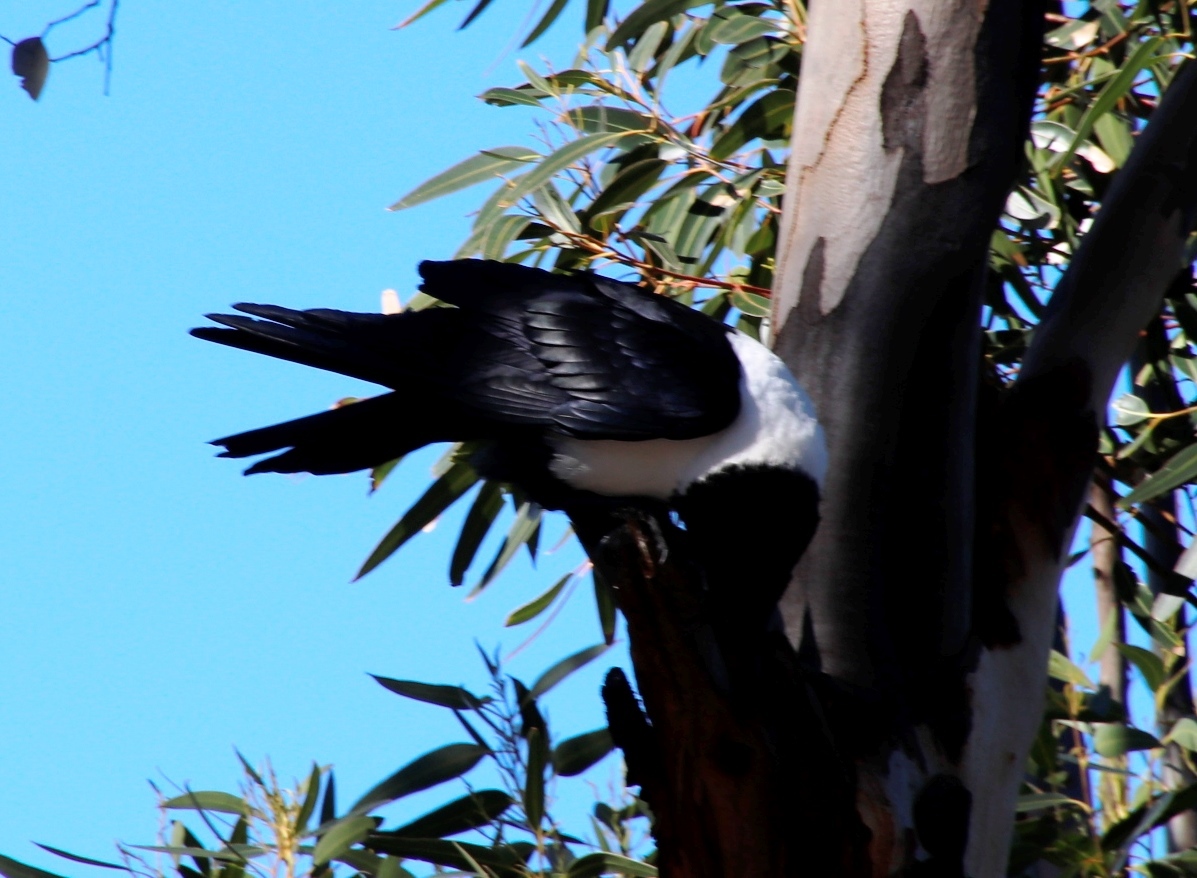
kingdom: Animalia
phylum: Chordata
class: Aves
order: Passeriformes
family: Corvidae
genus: Corvus
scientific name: Corvus albus
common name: Pied crow
